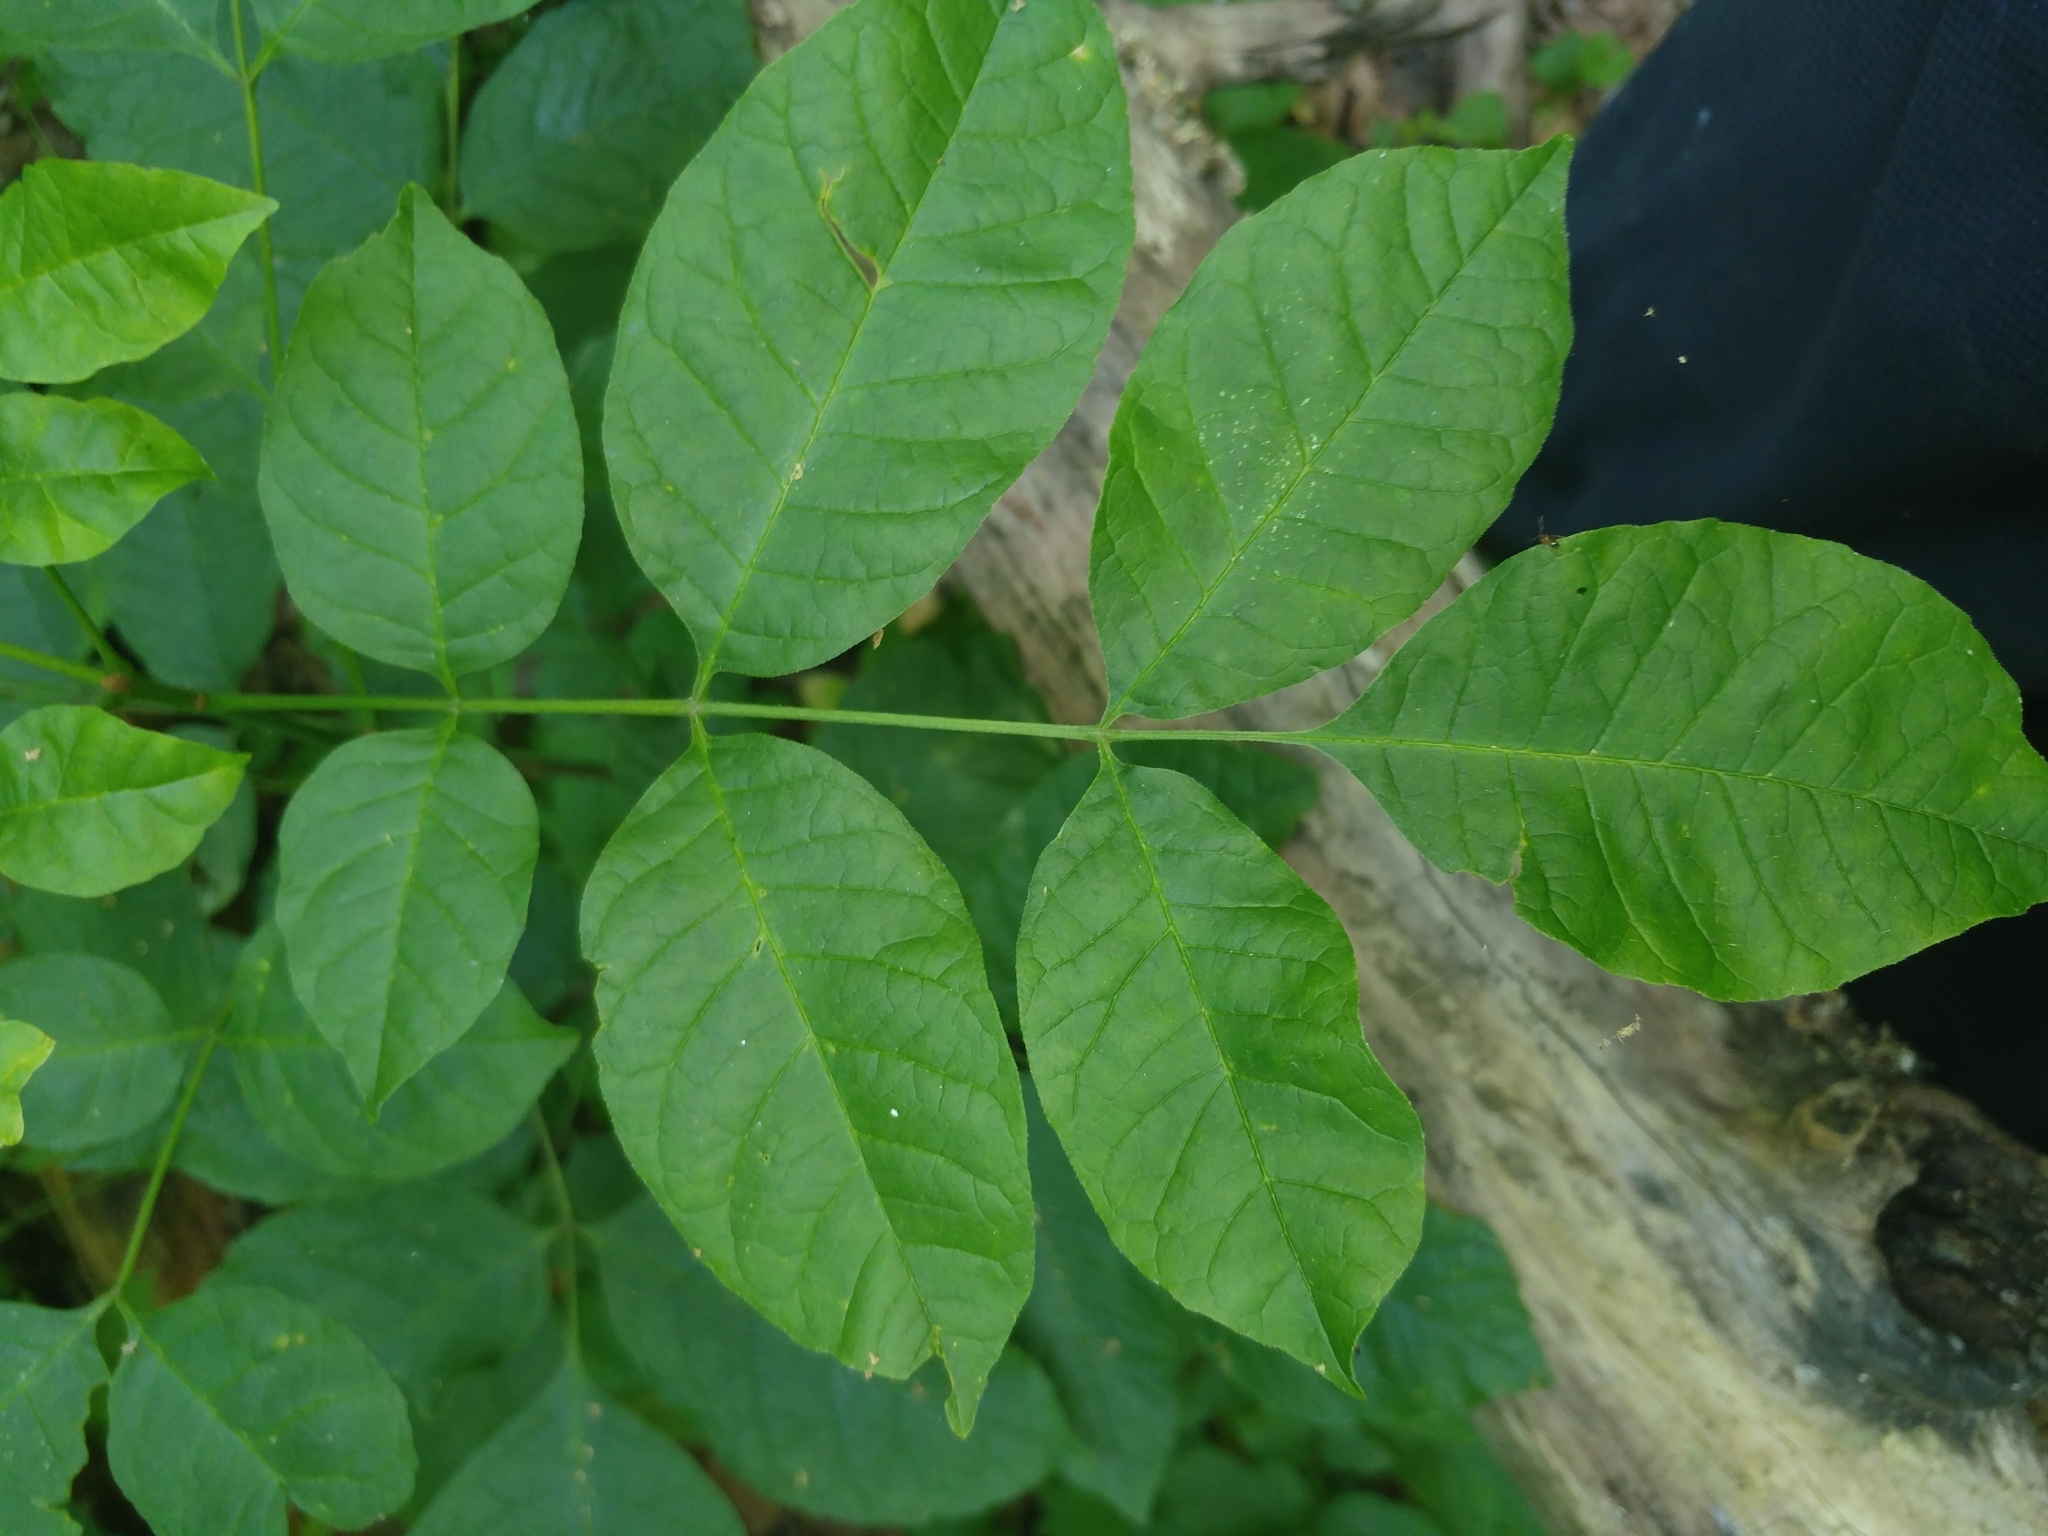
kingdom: Plantae
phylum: Tracheophyta
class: Magnoliopsida
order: Lamiales
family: Oleaceae
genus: Fraxinus
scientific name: Fraxinus pennsylvanica
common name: Green ash
